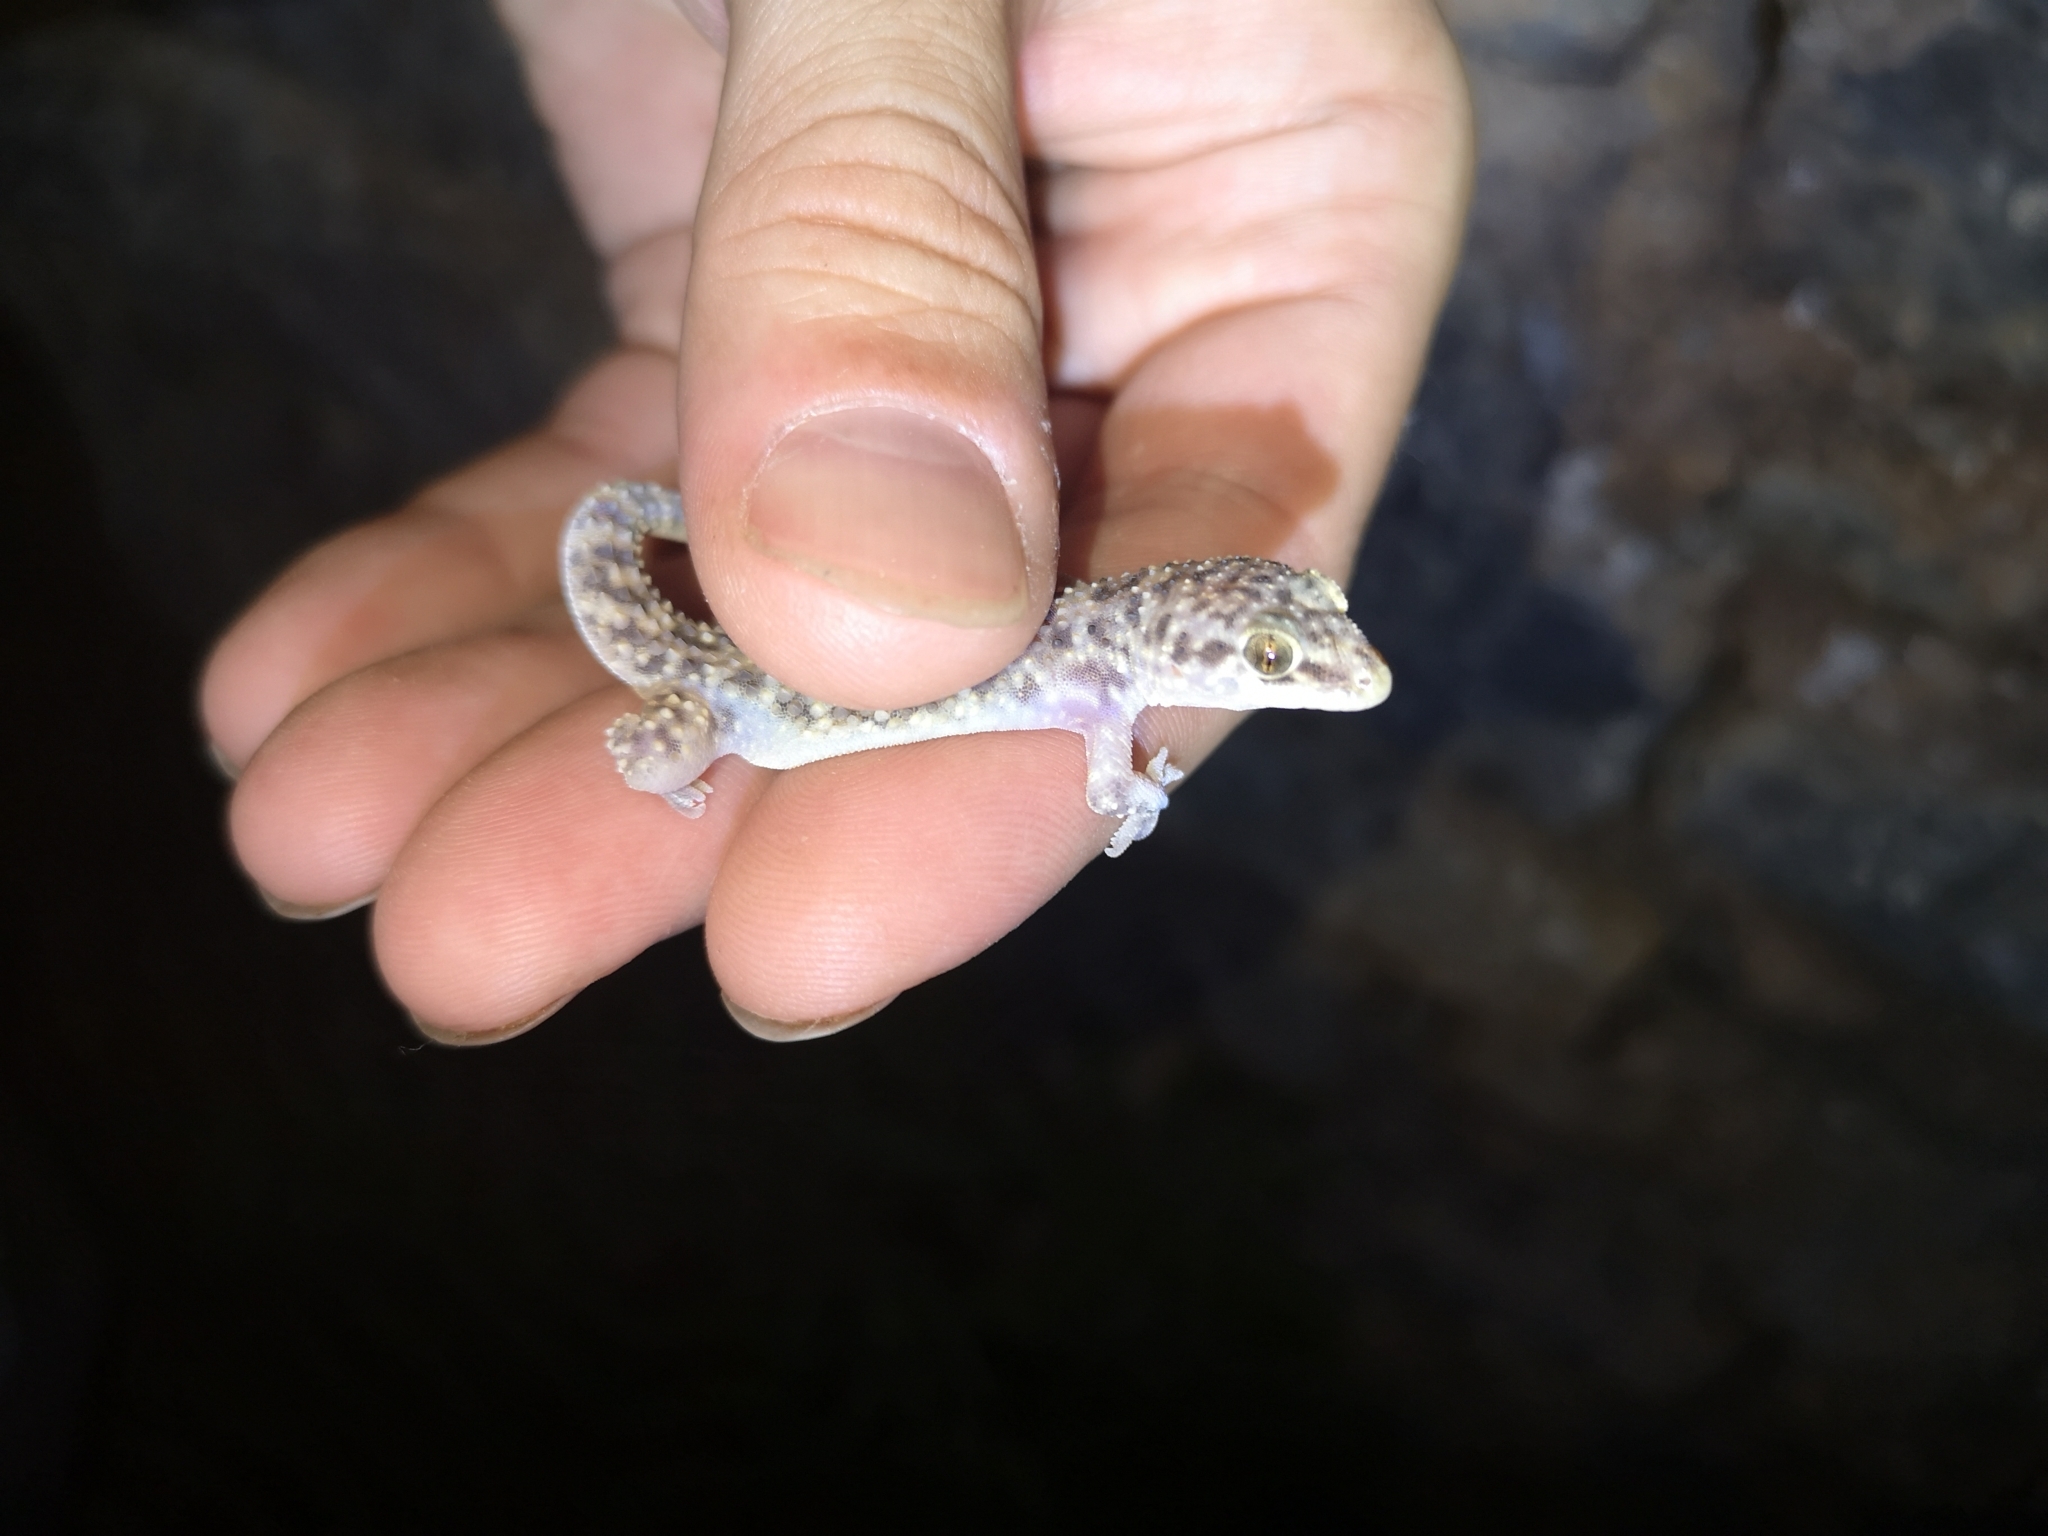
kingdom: Animalia
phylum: Chordata
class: Squamata
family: Gekkonidae
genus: Hemidactylus
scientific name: Hemidactylus turcicus
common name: Turkish gecko
